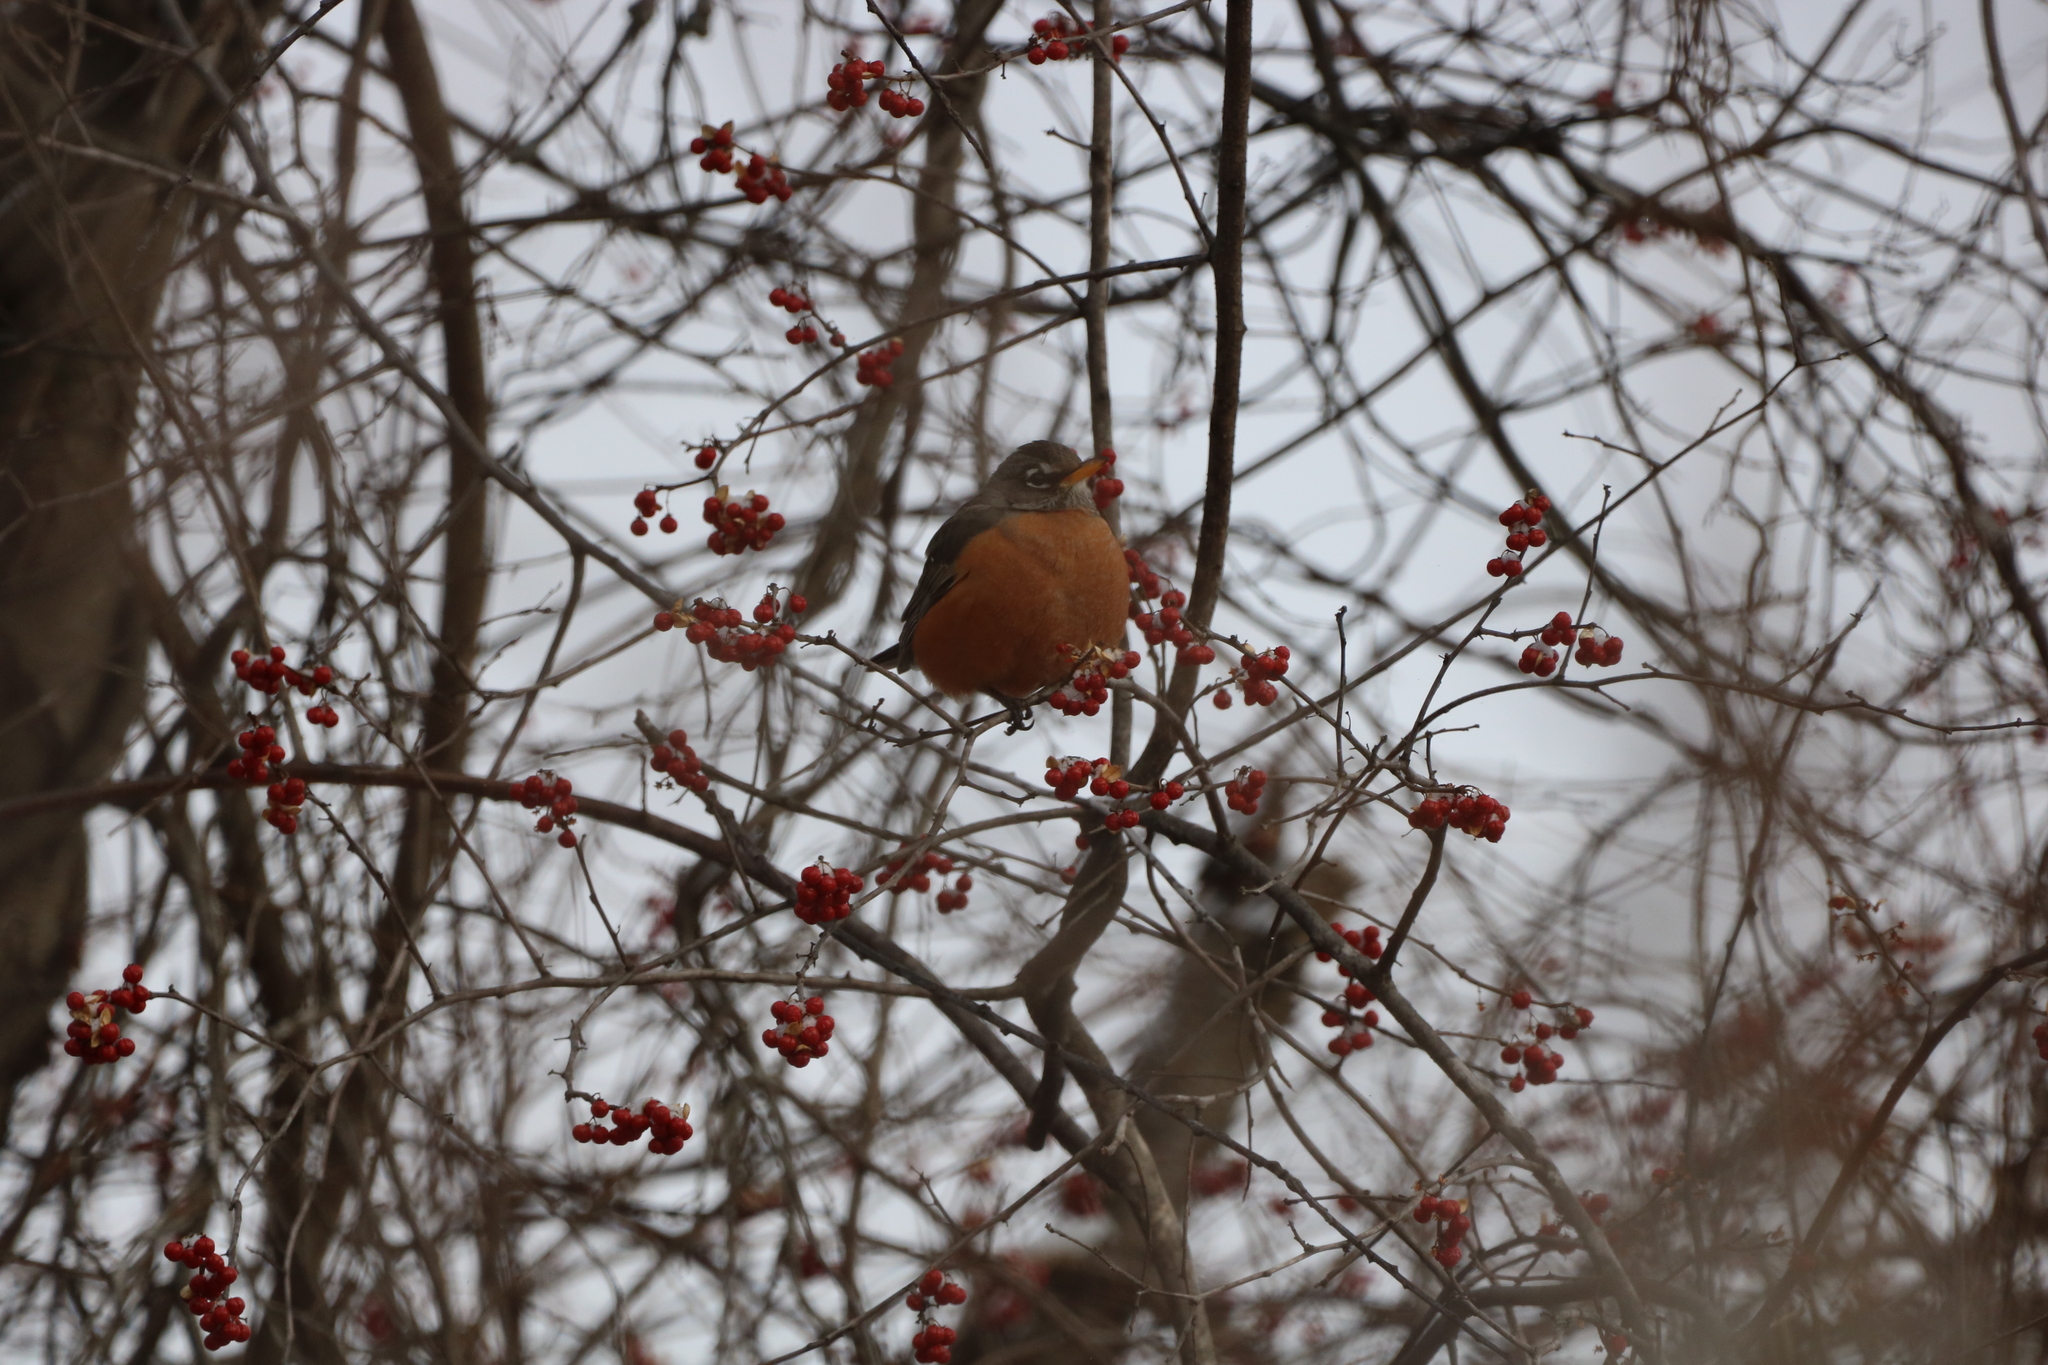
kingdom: Animalia
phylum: Chordata
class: Aves
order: Passeriformes
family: Turdidae
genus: Turdus
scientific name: Turdus migratorius
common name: American robin
